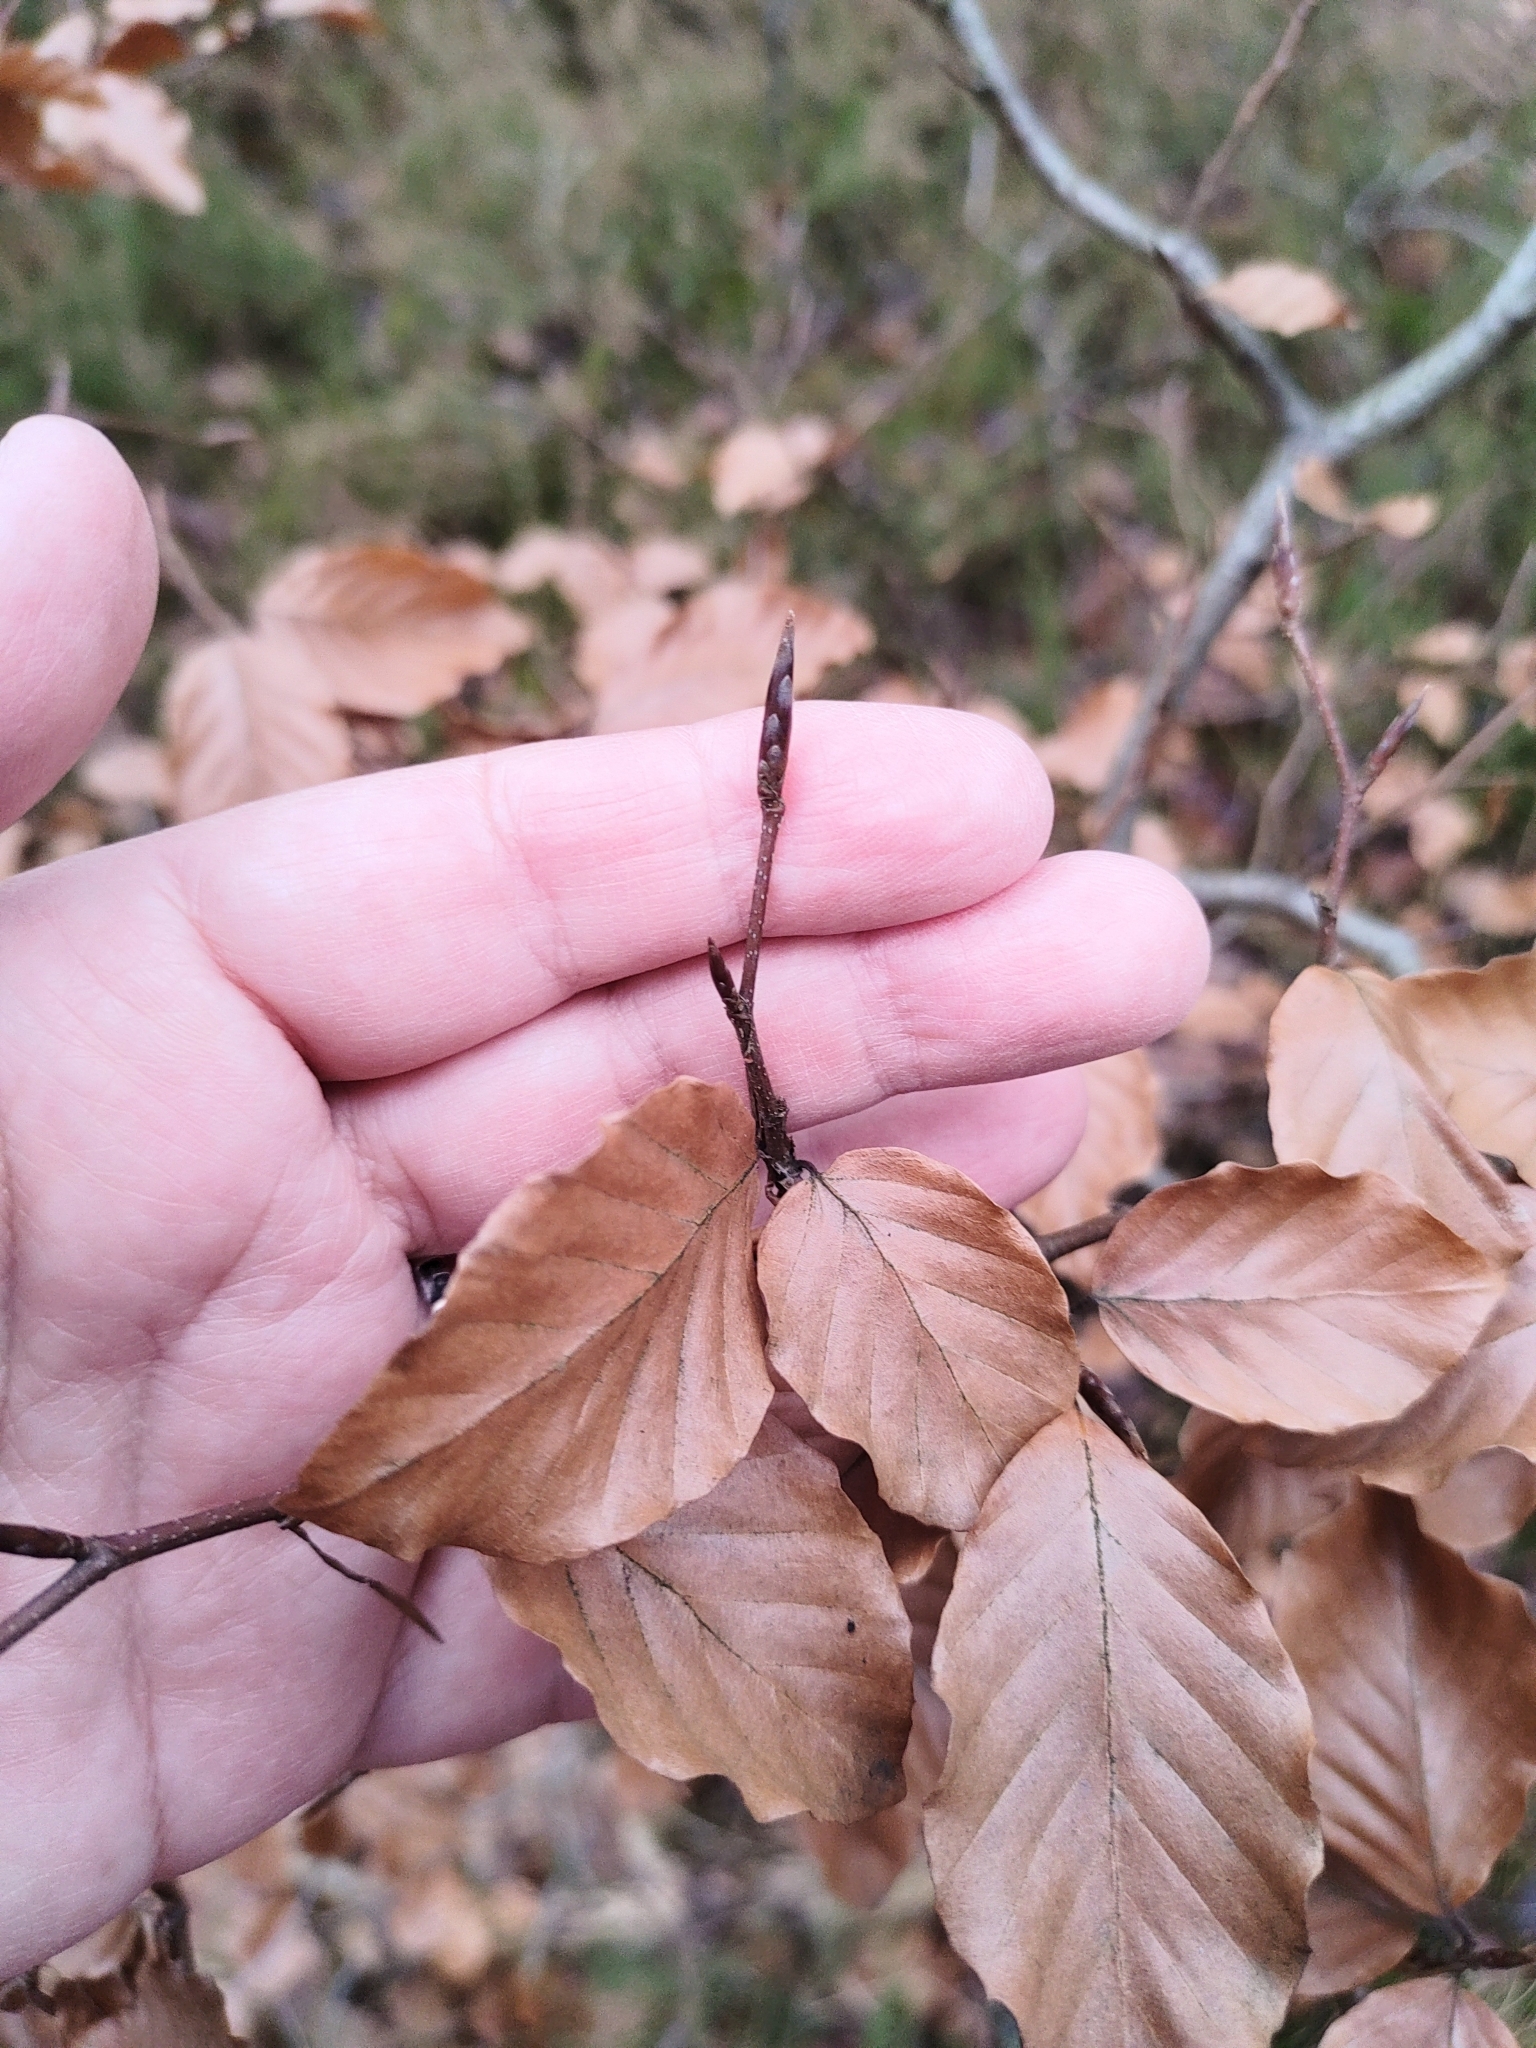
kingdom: Plantae
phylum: Tracheophyta
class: Magnoliopsida
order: Fagales
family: Fagaceae
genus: Fagus
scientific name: Fagus sylvatica
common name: Beech
